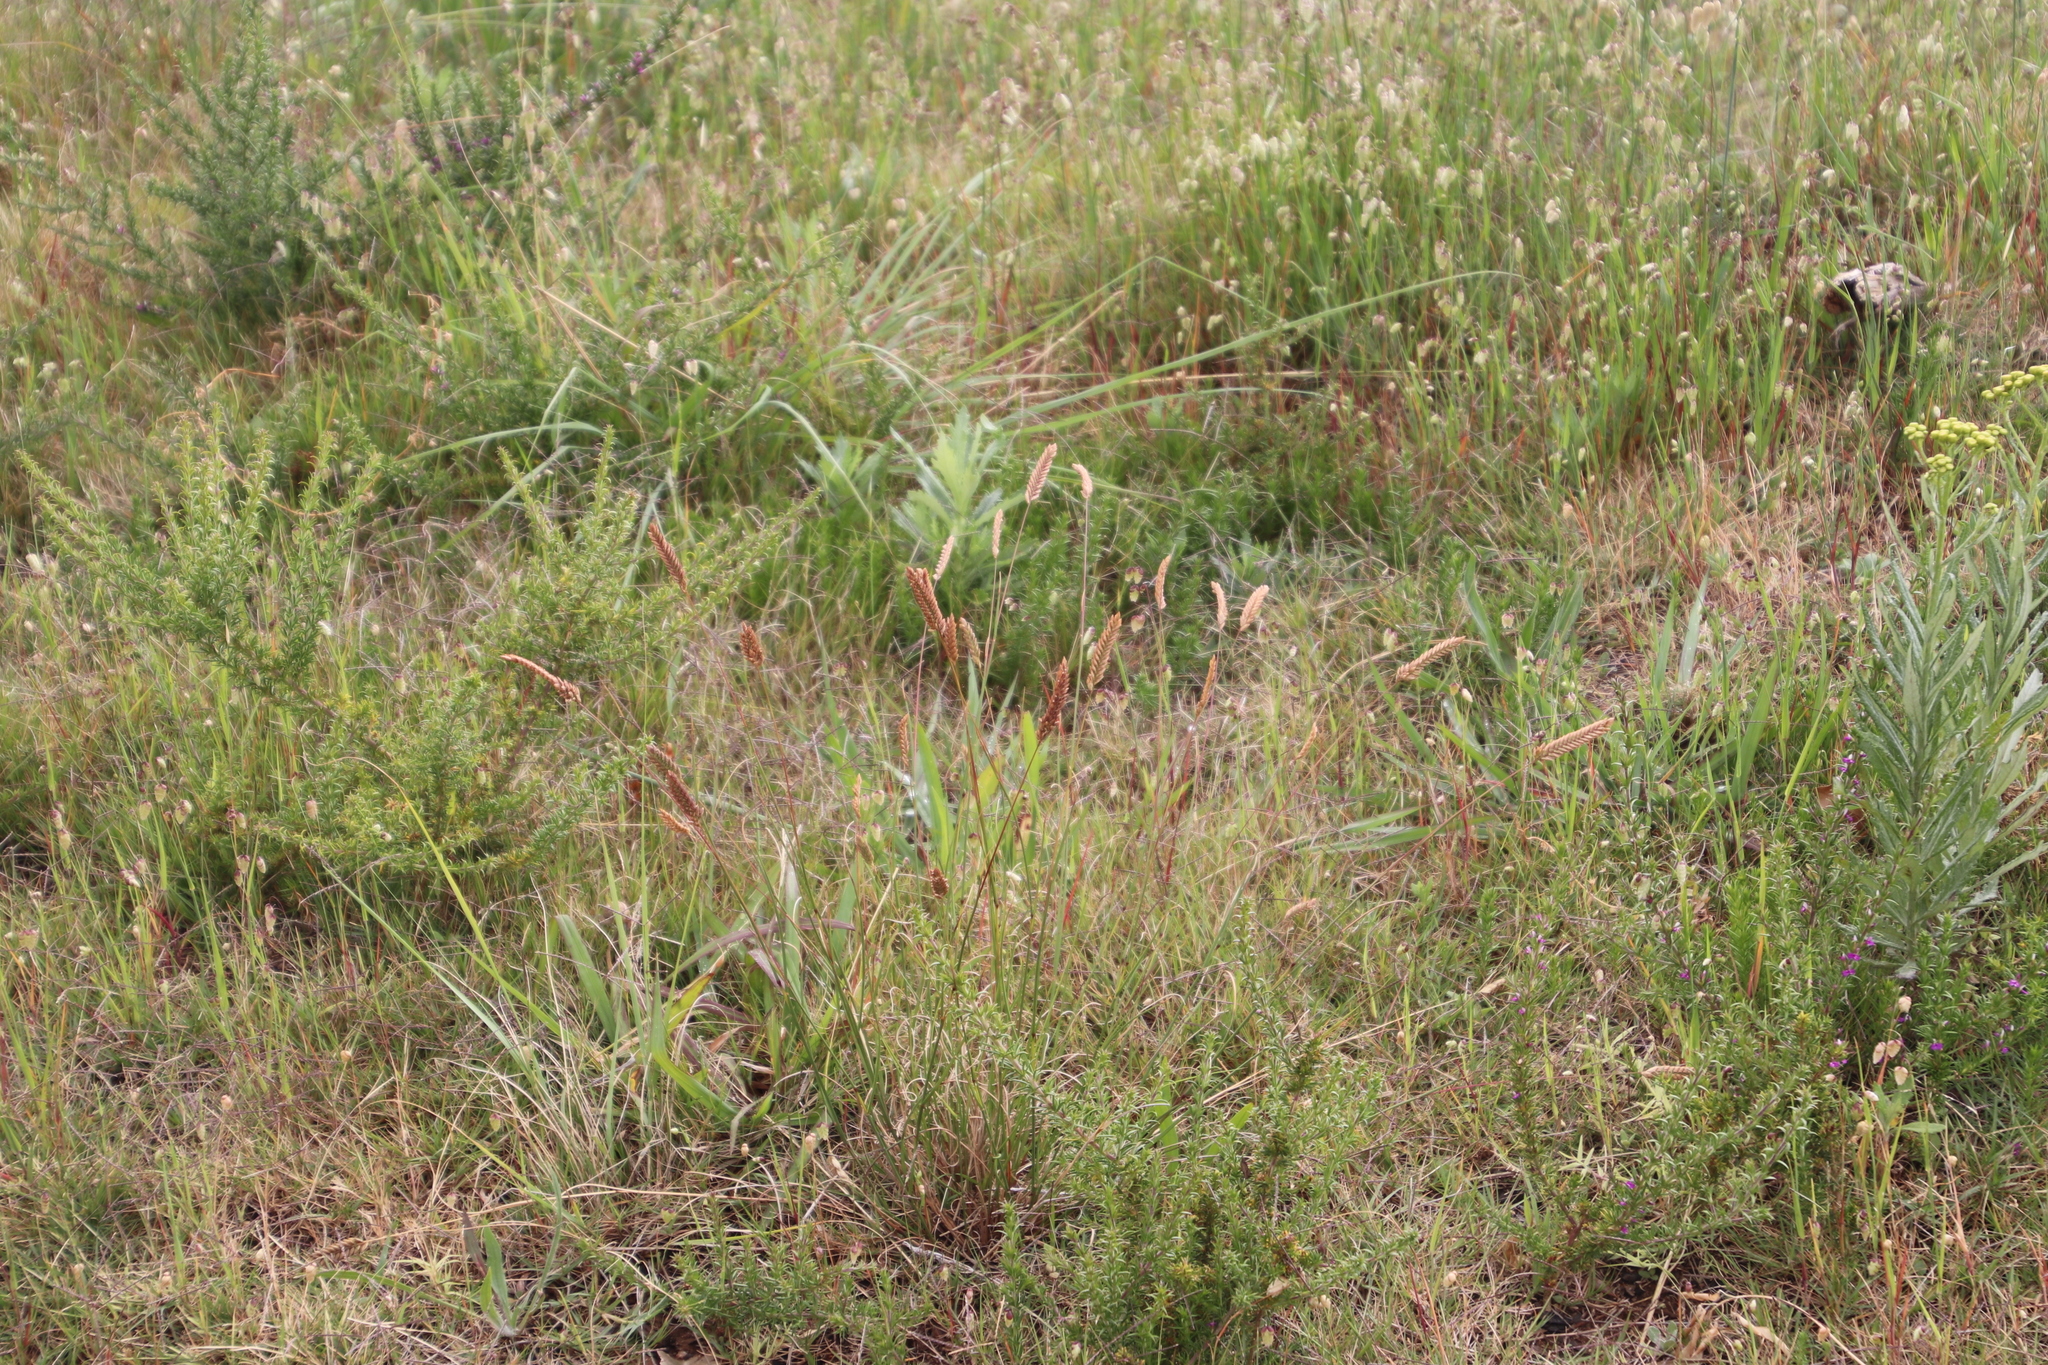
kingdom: Plantae
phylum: Tracheophyta
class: Liliopsida
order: Poales
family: Poaceae
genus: Tribolium
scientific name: Tribolium uniolae
